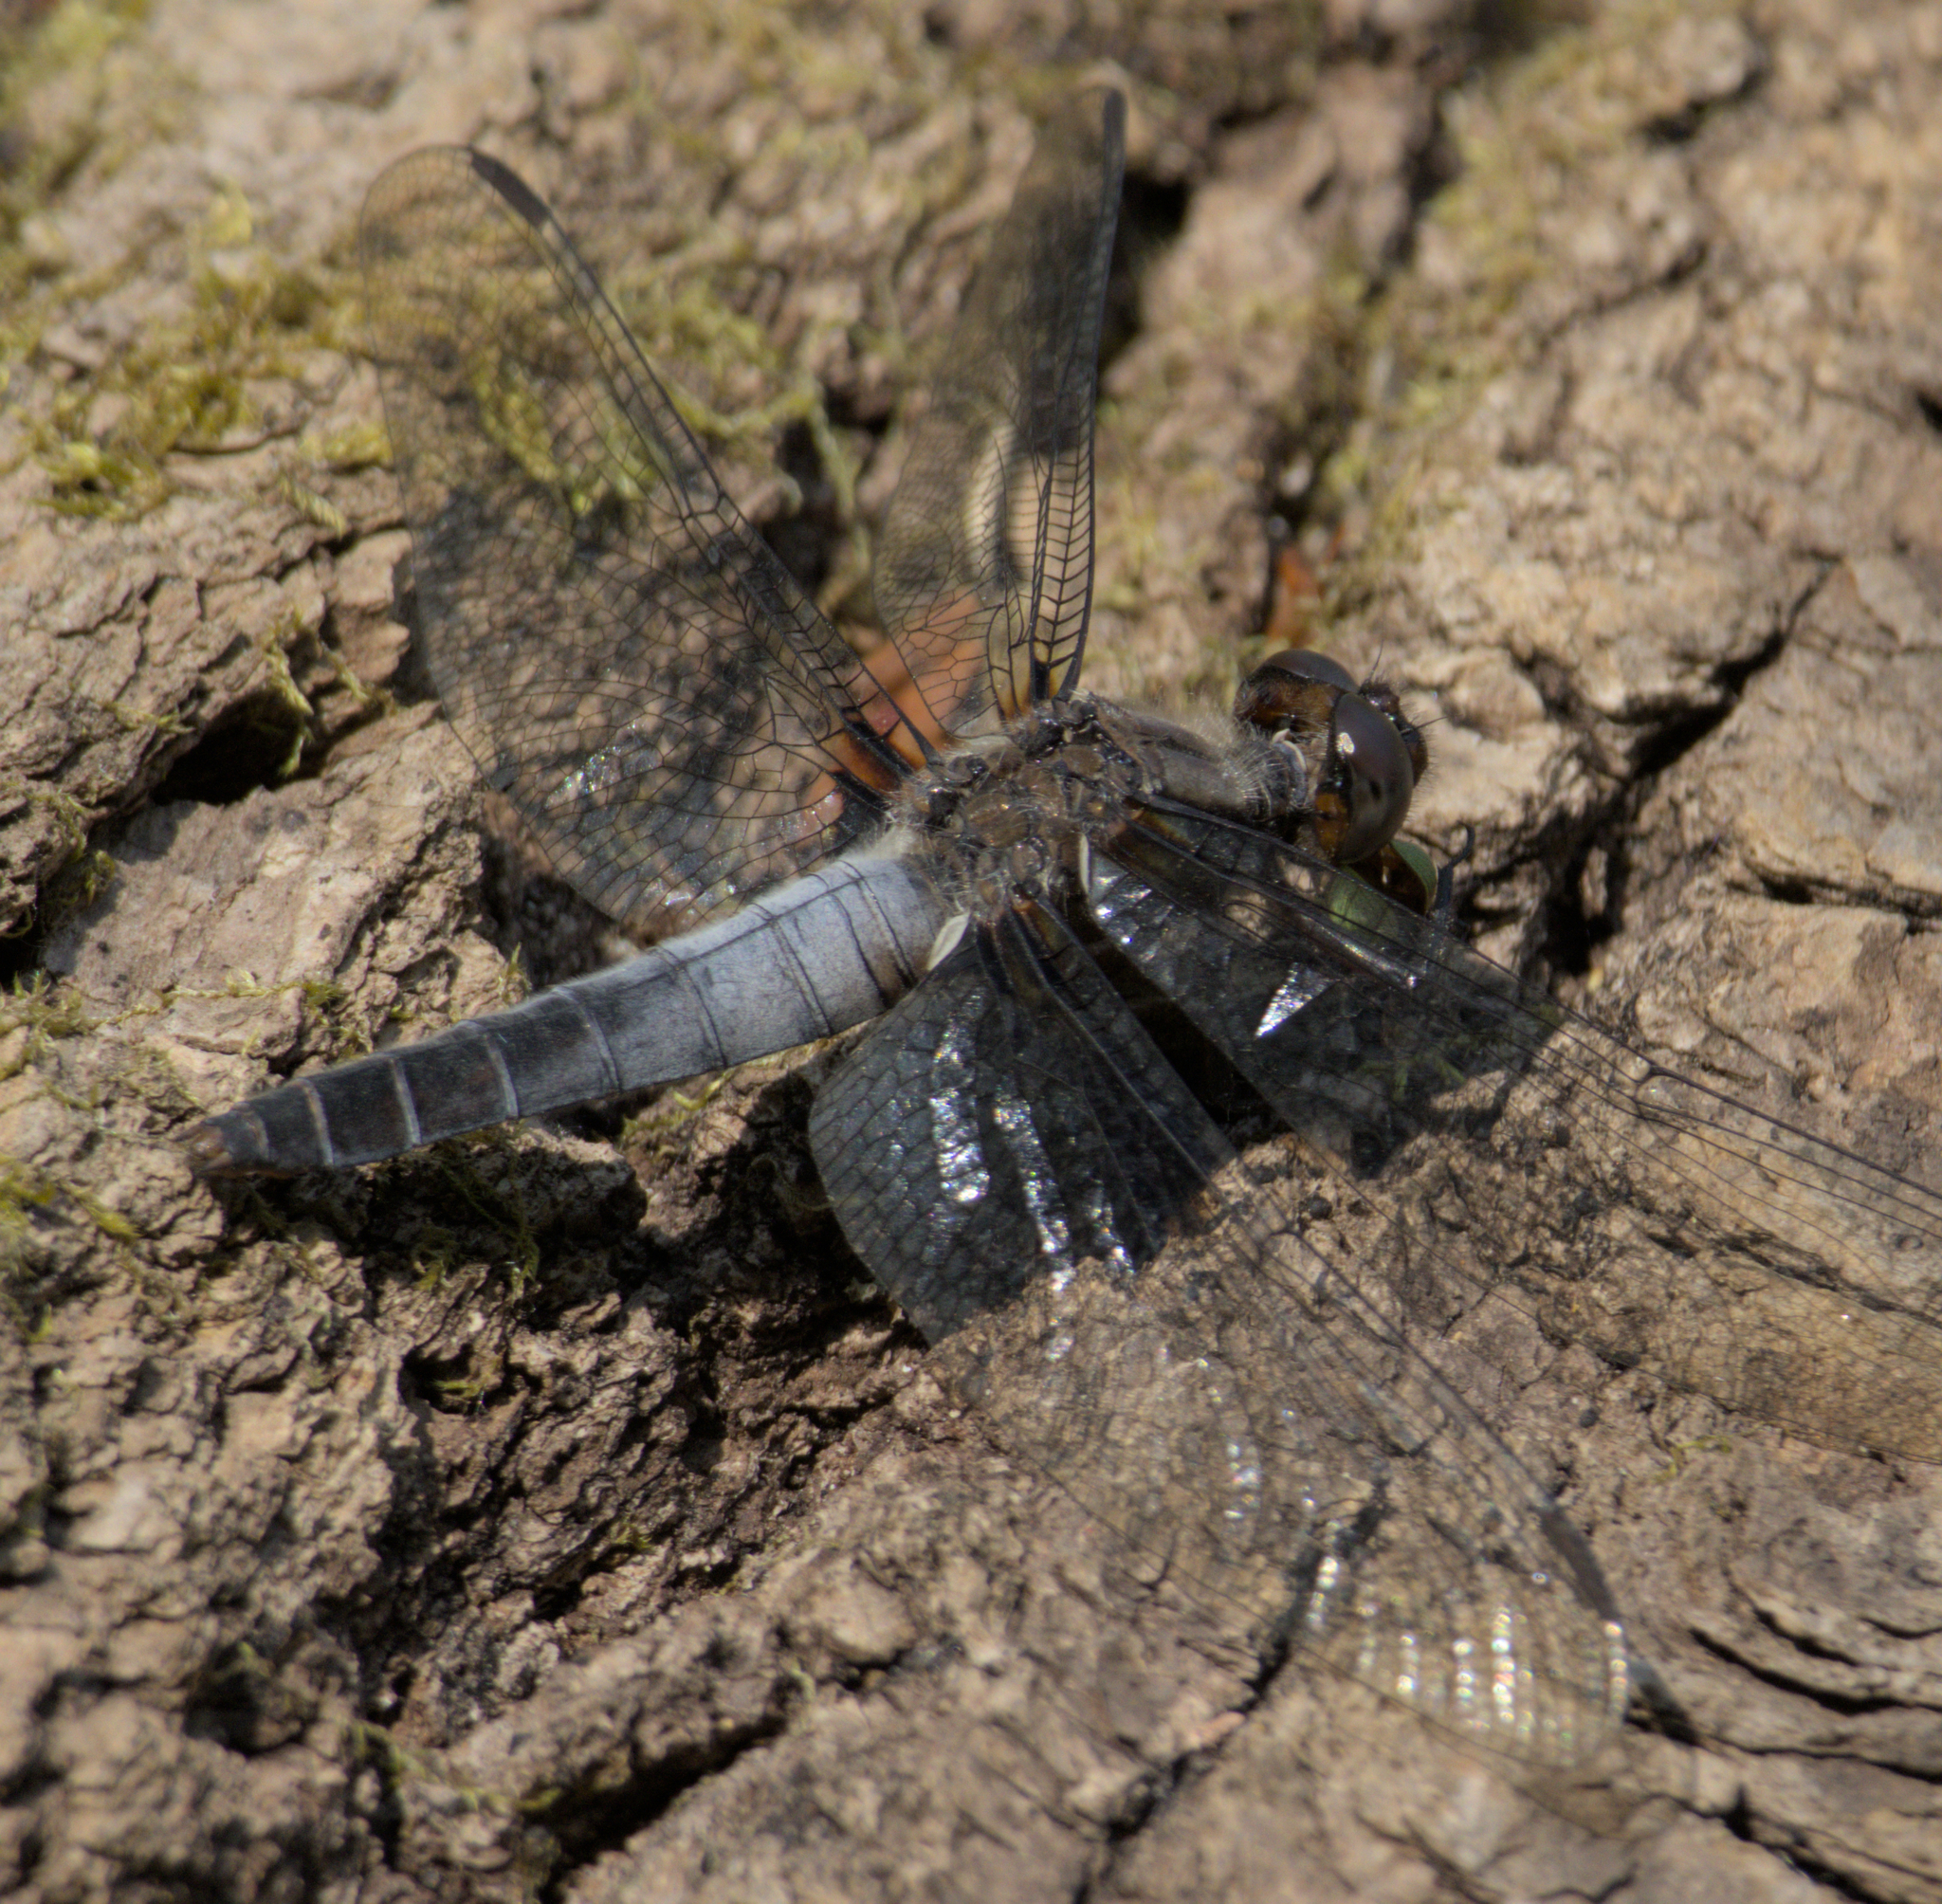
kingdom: Animalia
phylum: Arthropoda
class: Insecta
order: Odonata
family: Libellulidae
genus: Ladona
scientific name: Ladona julia
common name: Chalk-fronted corporal
